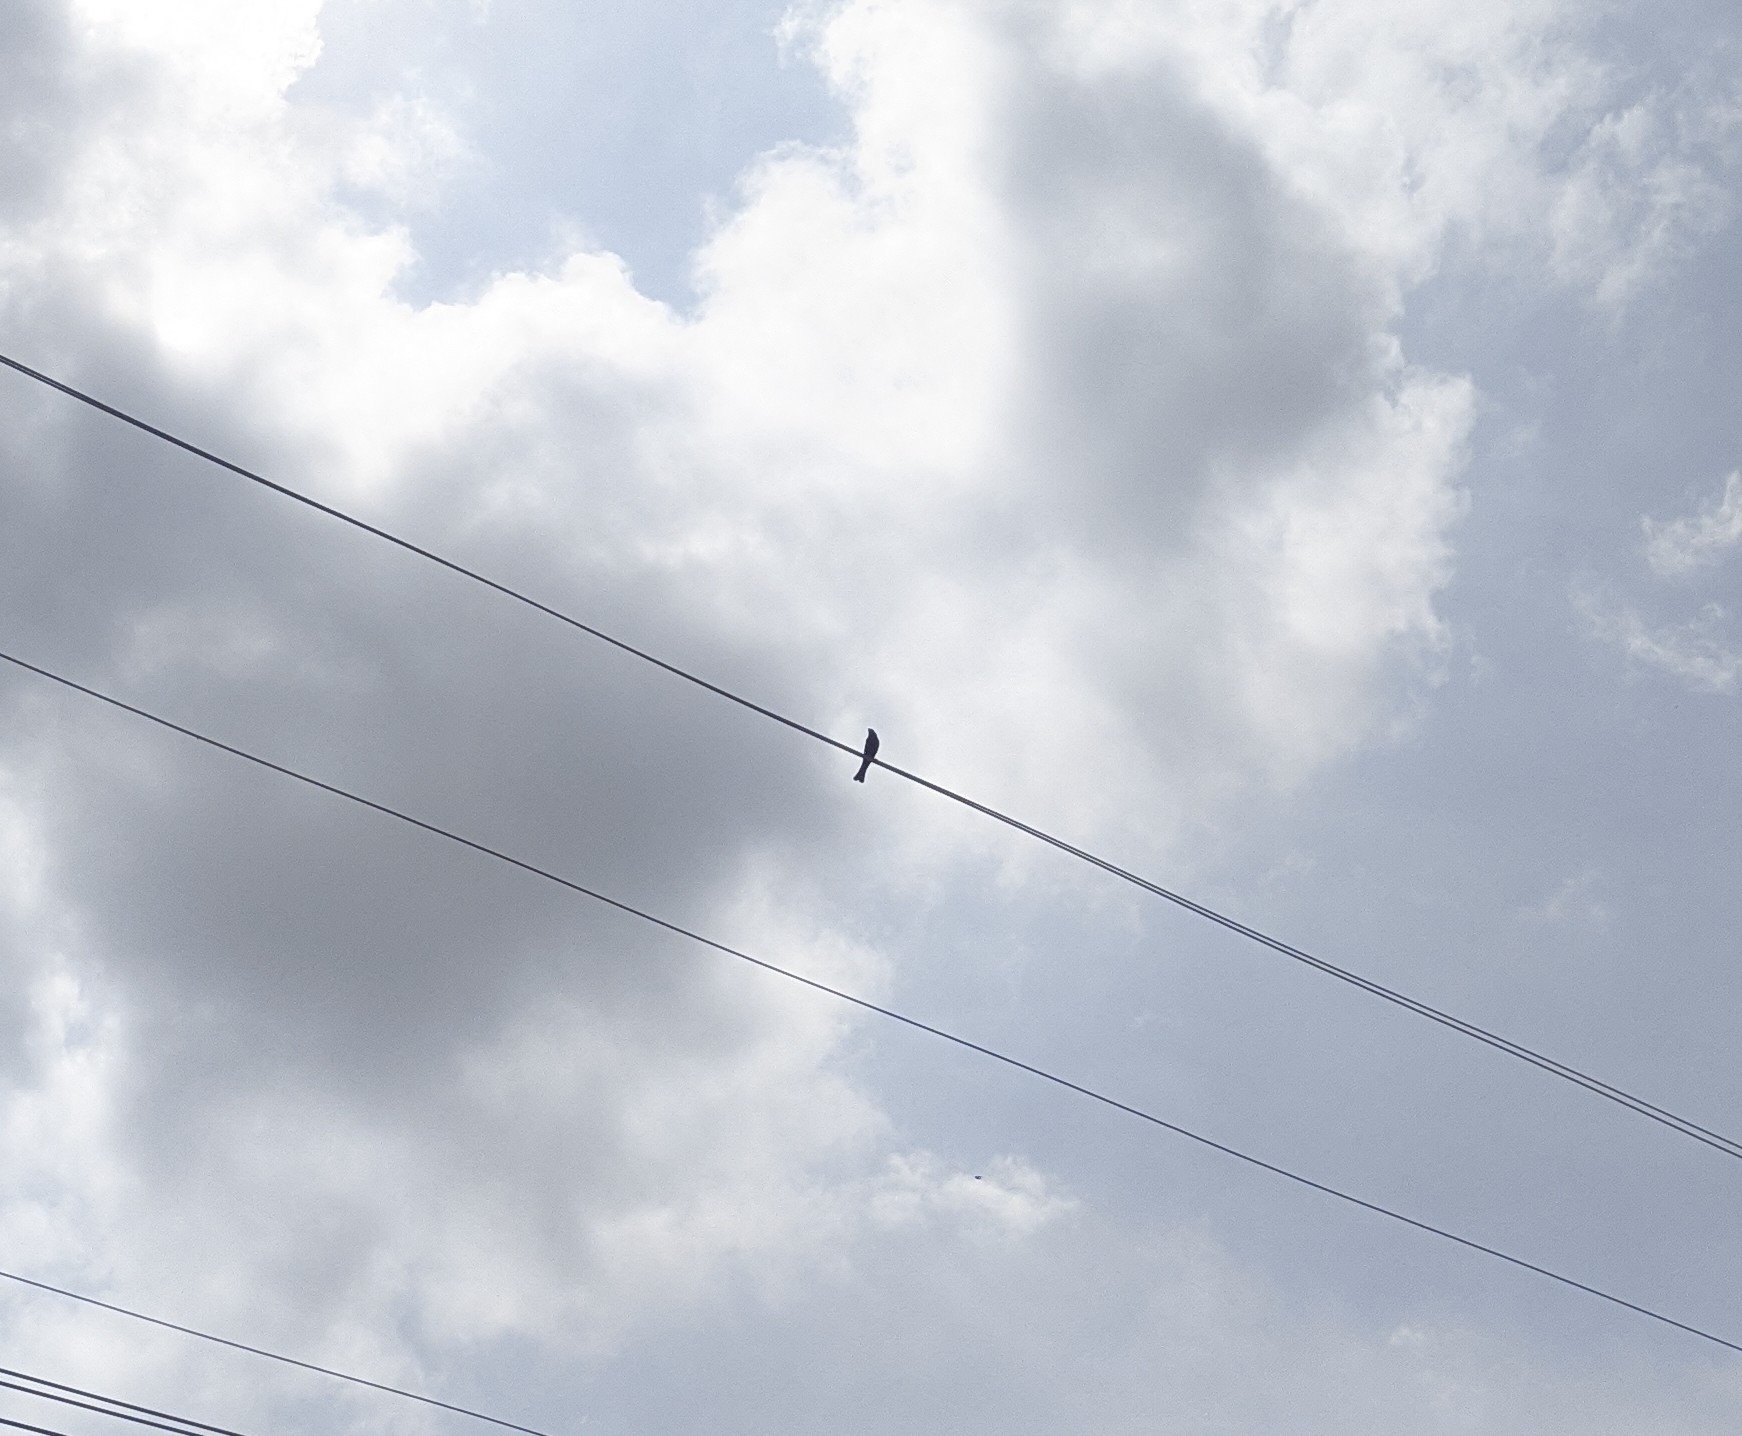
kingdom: Animalia
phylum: Chordata
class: Aves
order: Passeriformes
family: Icteridae
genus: Molothrus
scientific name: Molothrus bonariensis
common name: Shiny cowbird
